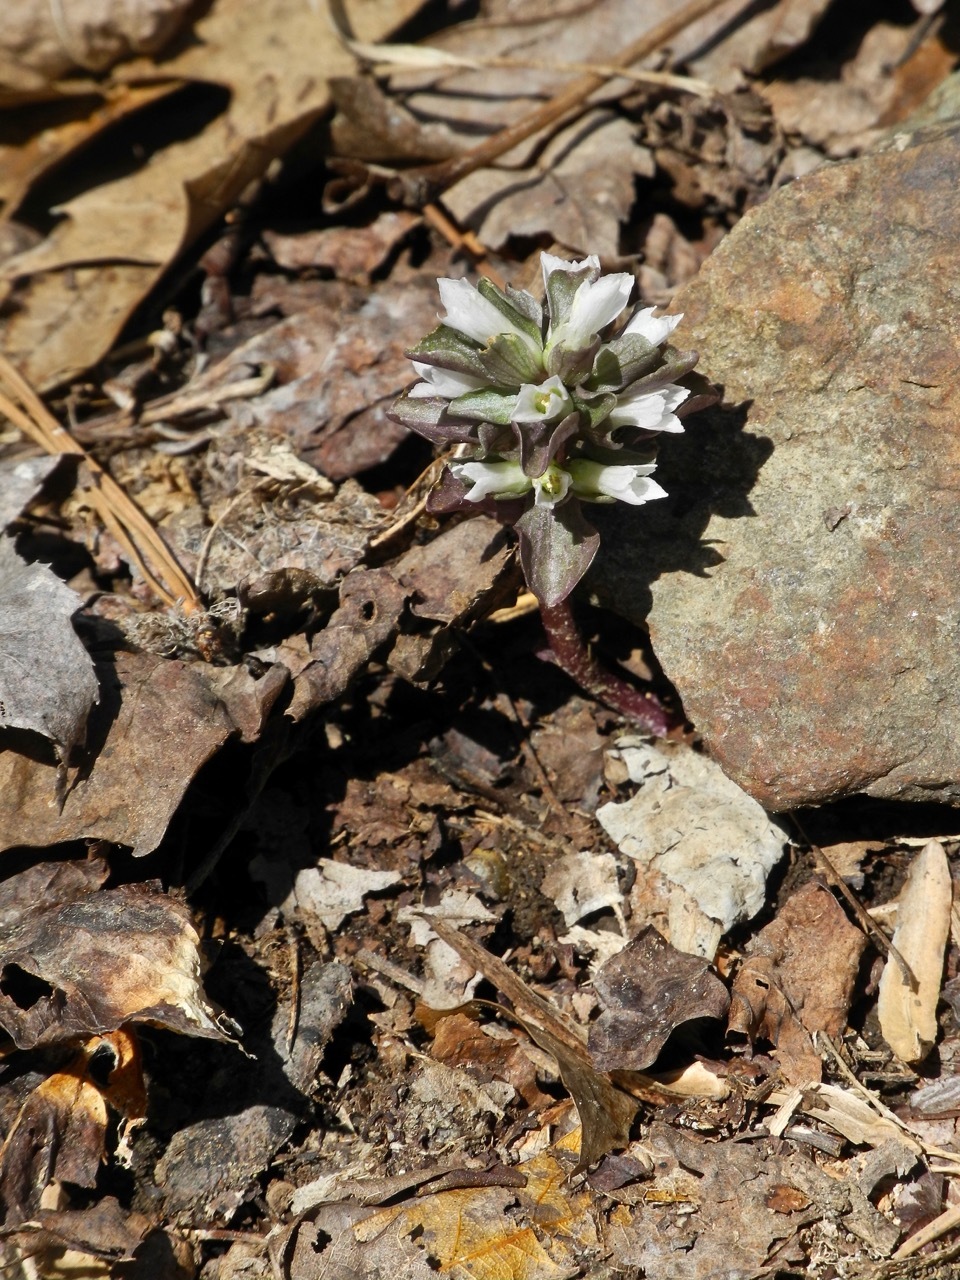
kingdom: Plantae
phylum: Tracheophyta
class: Magnoliopsida
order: Gentianales
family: Gentianaceae
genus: Obolaria
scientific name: Obolaria virginica
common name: Pennywort
